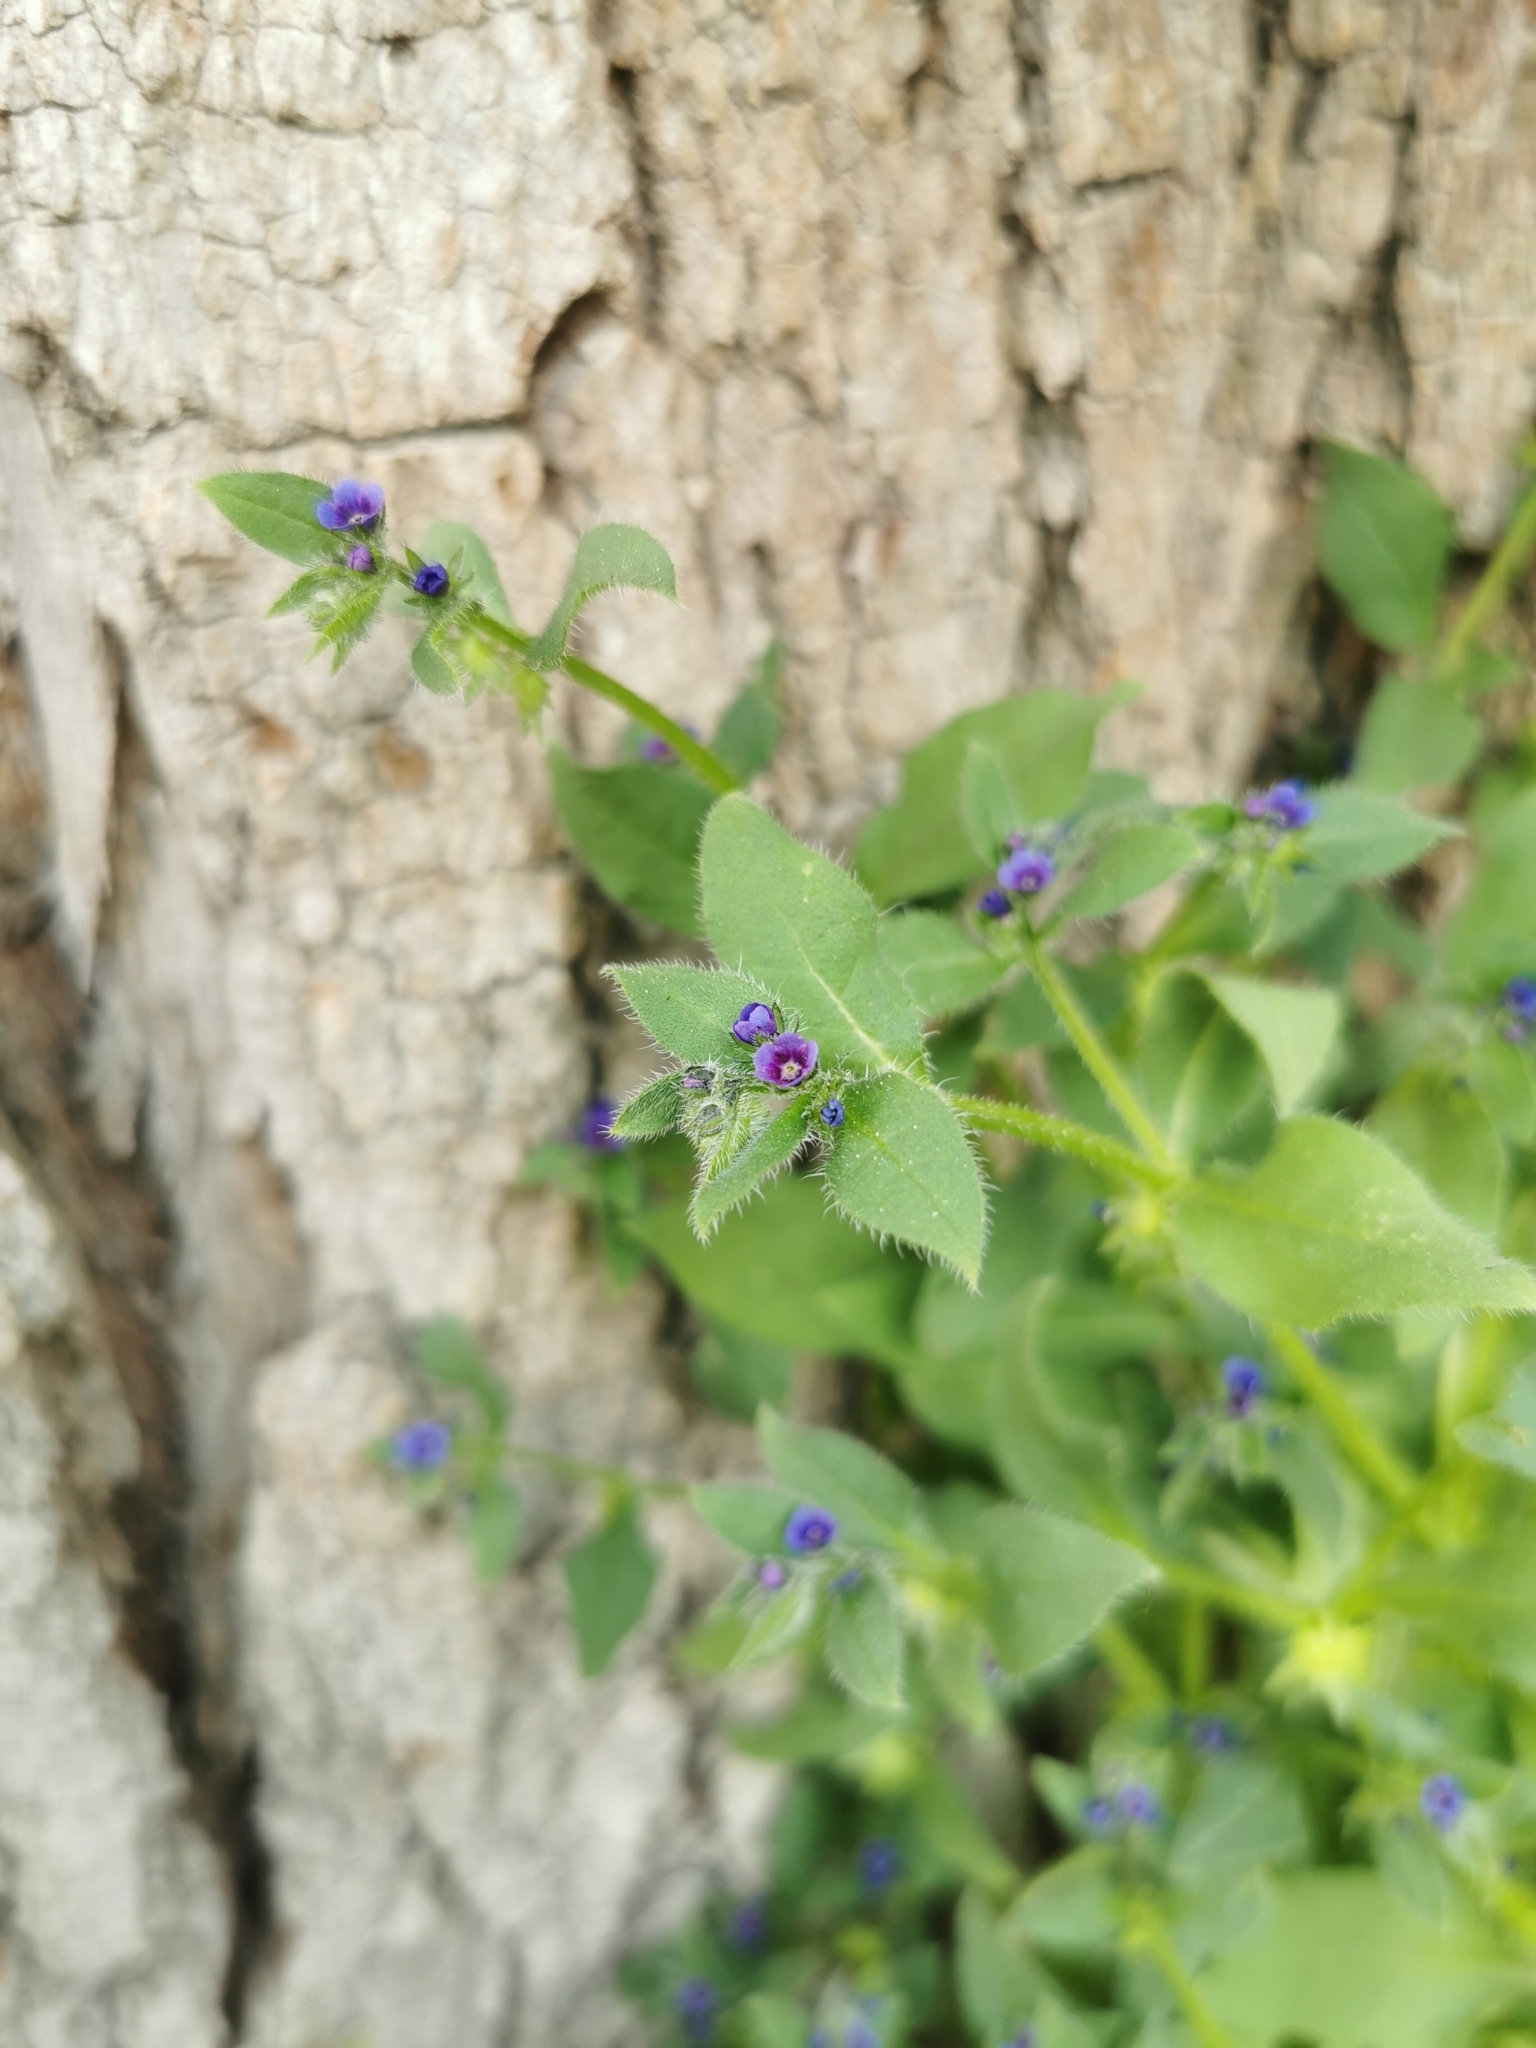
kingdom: Plantae
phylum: Tracheophyta
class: Magnoliopsida
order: Boraginales
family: Boraginaceae
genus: Asperugo
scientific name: Asperugo procumbens
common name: Madwort
